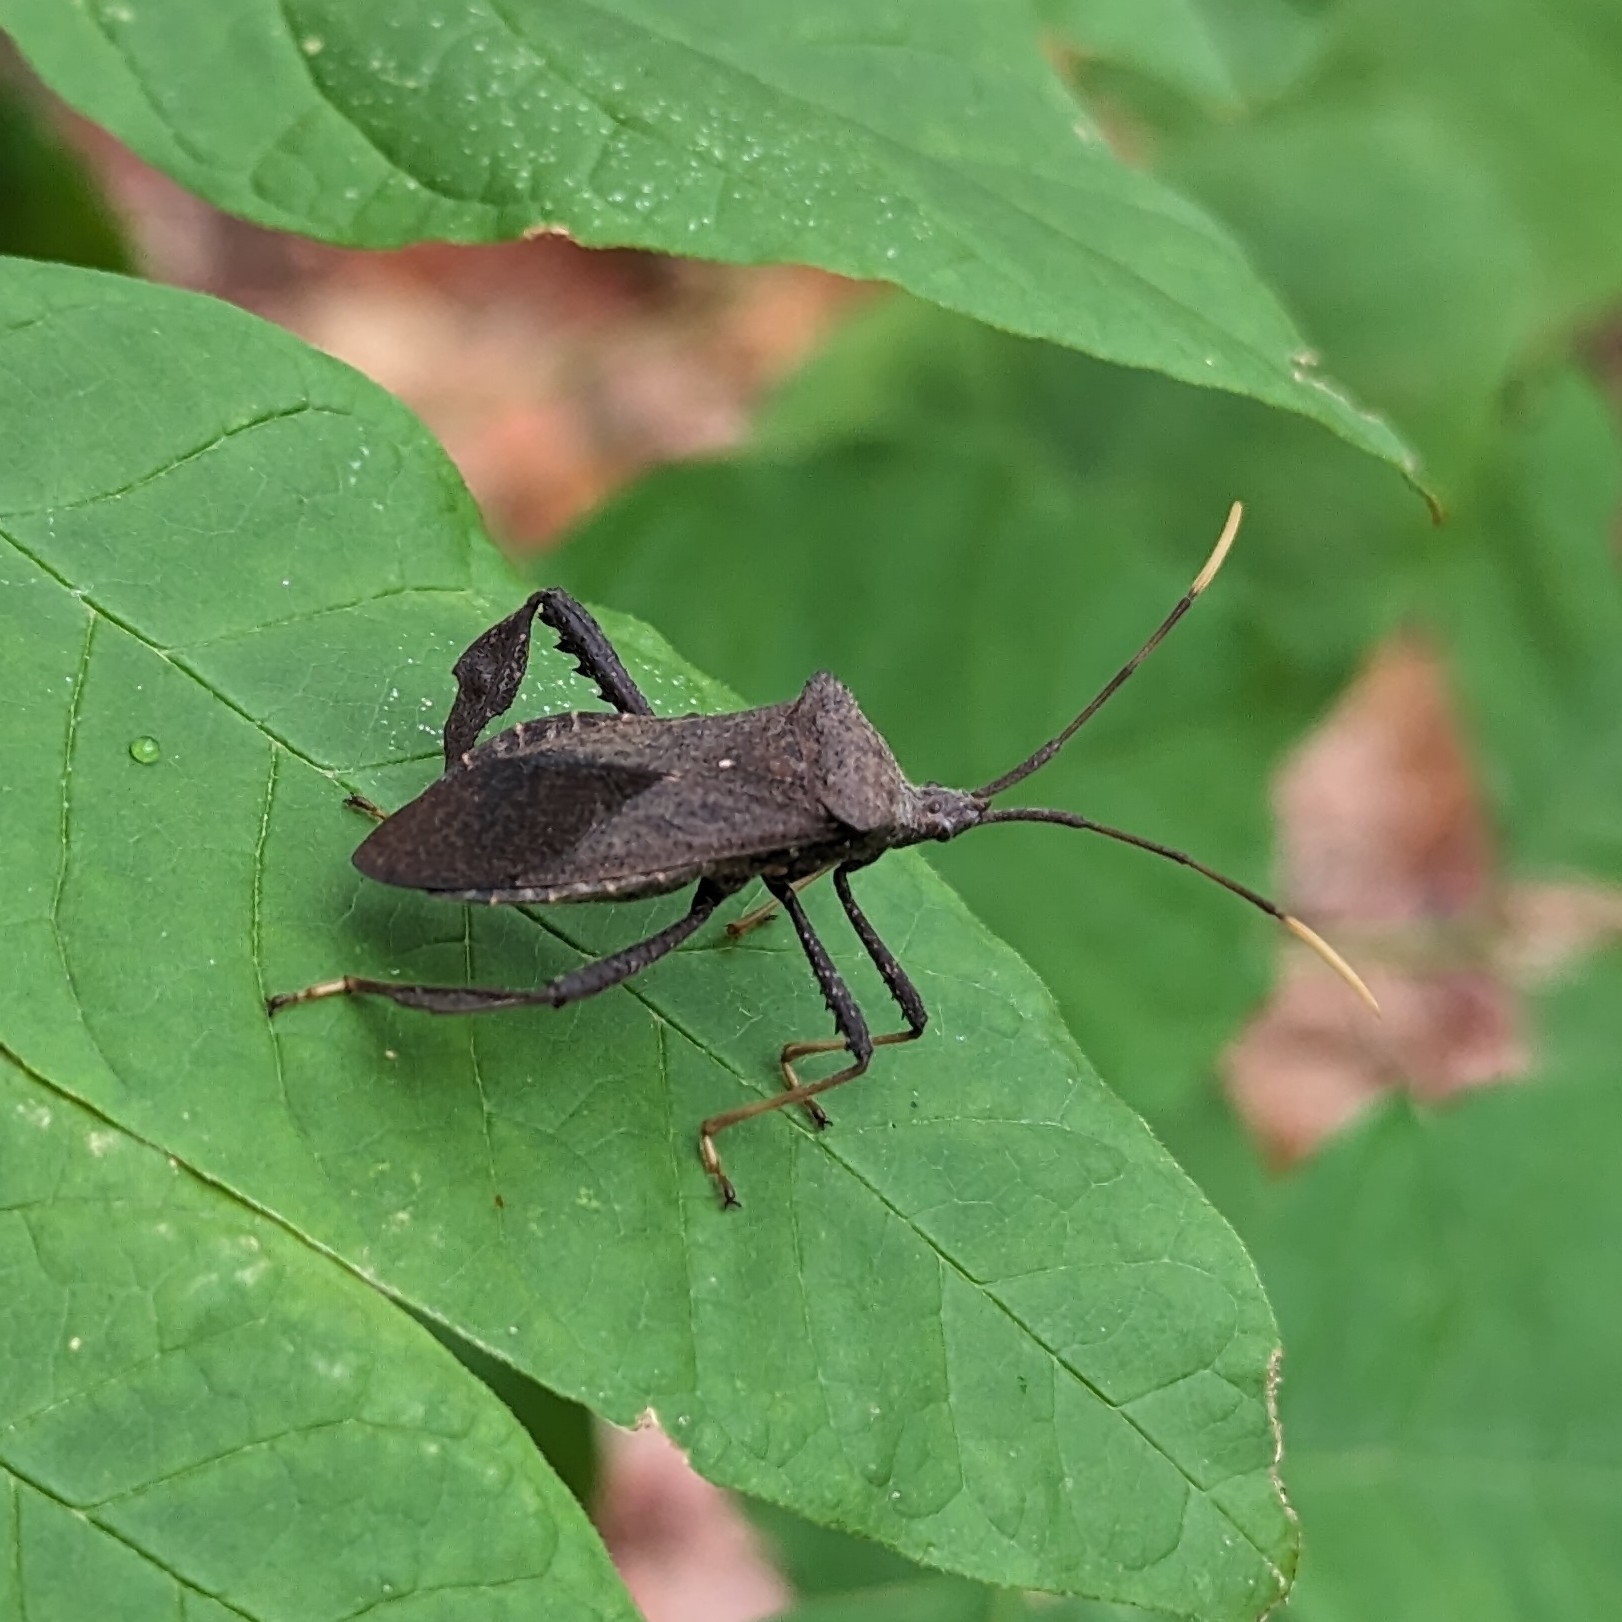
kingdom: Animalia
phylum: Arthropoda
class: Insecta
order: Hemiptera
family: Coreidae
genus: Acanthocephala
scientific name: Acanthocephala terminalis
